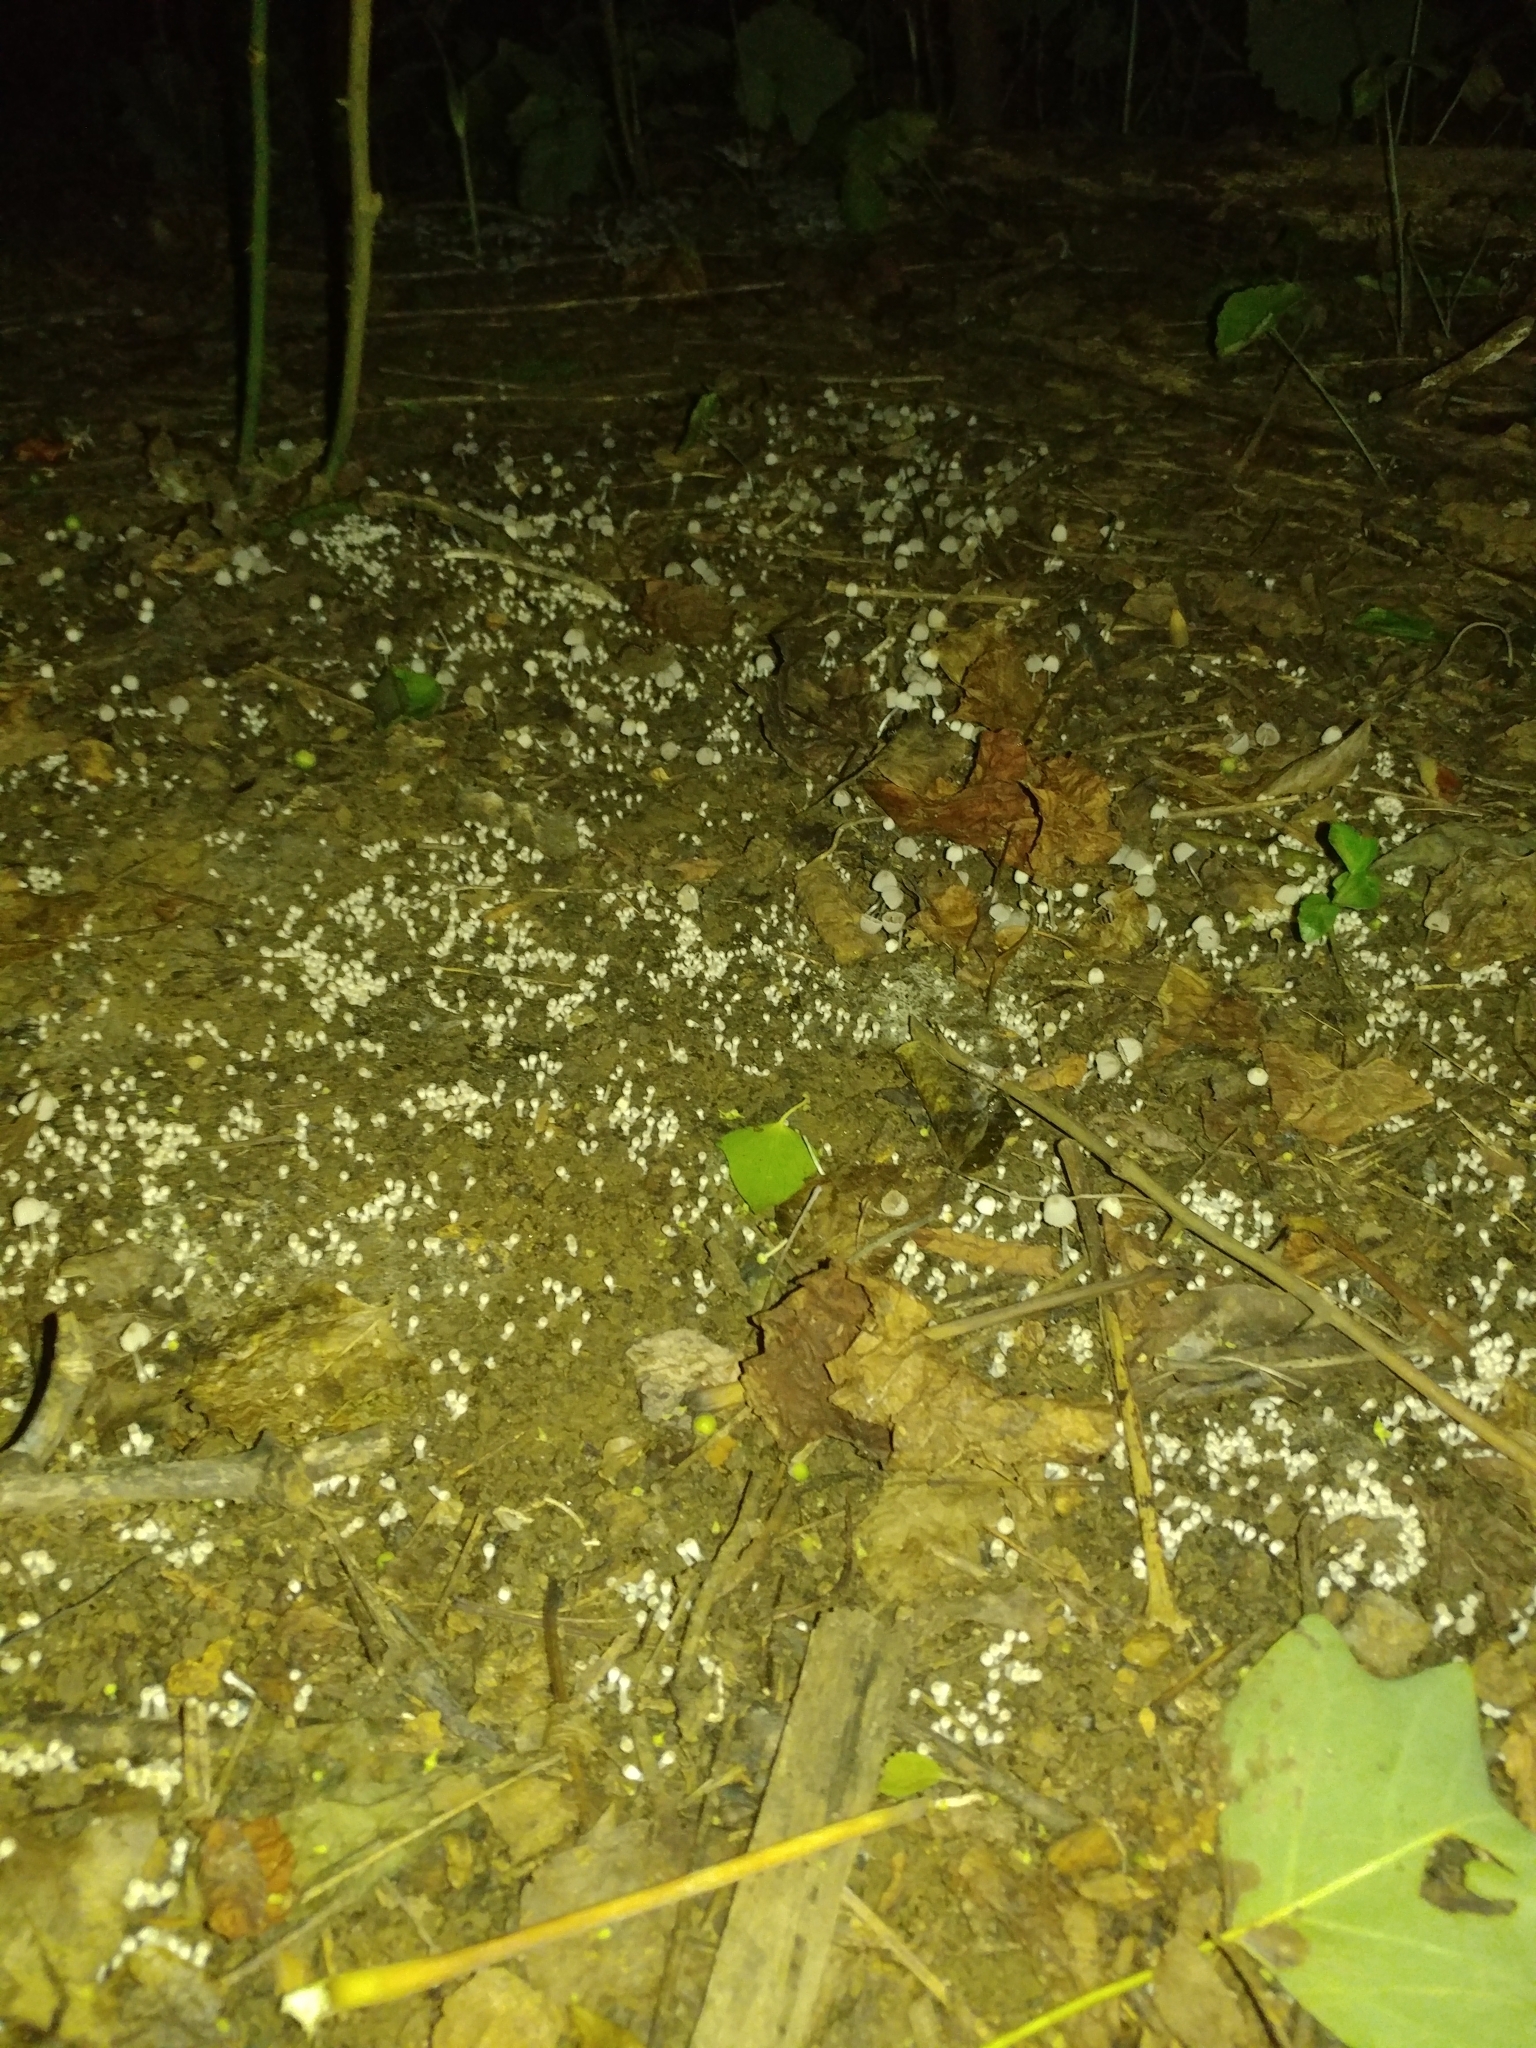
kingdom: Fungi
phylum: Basidiomycota
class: Agaricomycetes
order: Agaricales
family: Psathyrellaceae
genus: Coprinellus
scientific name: Coprinellus disseminatus
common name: Fairies' bonnets
